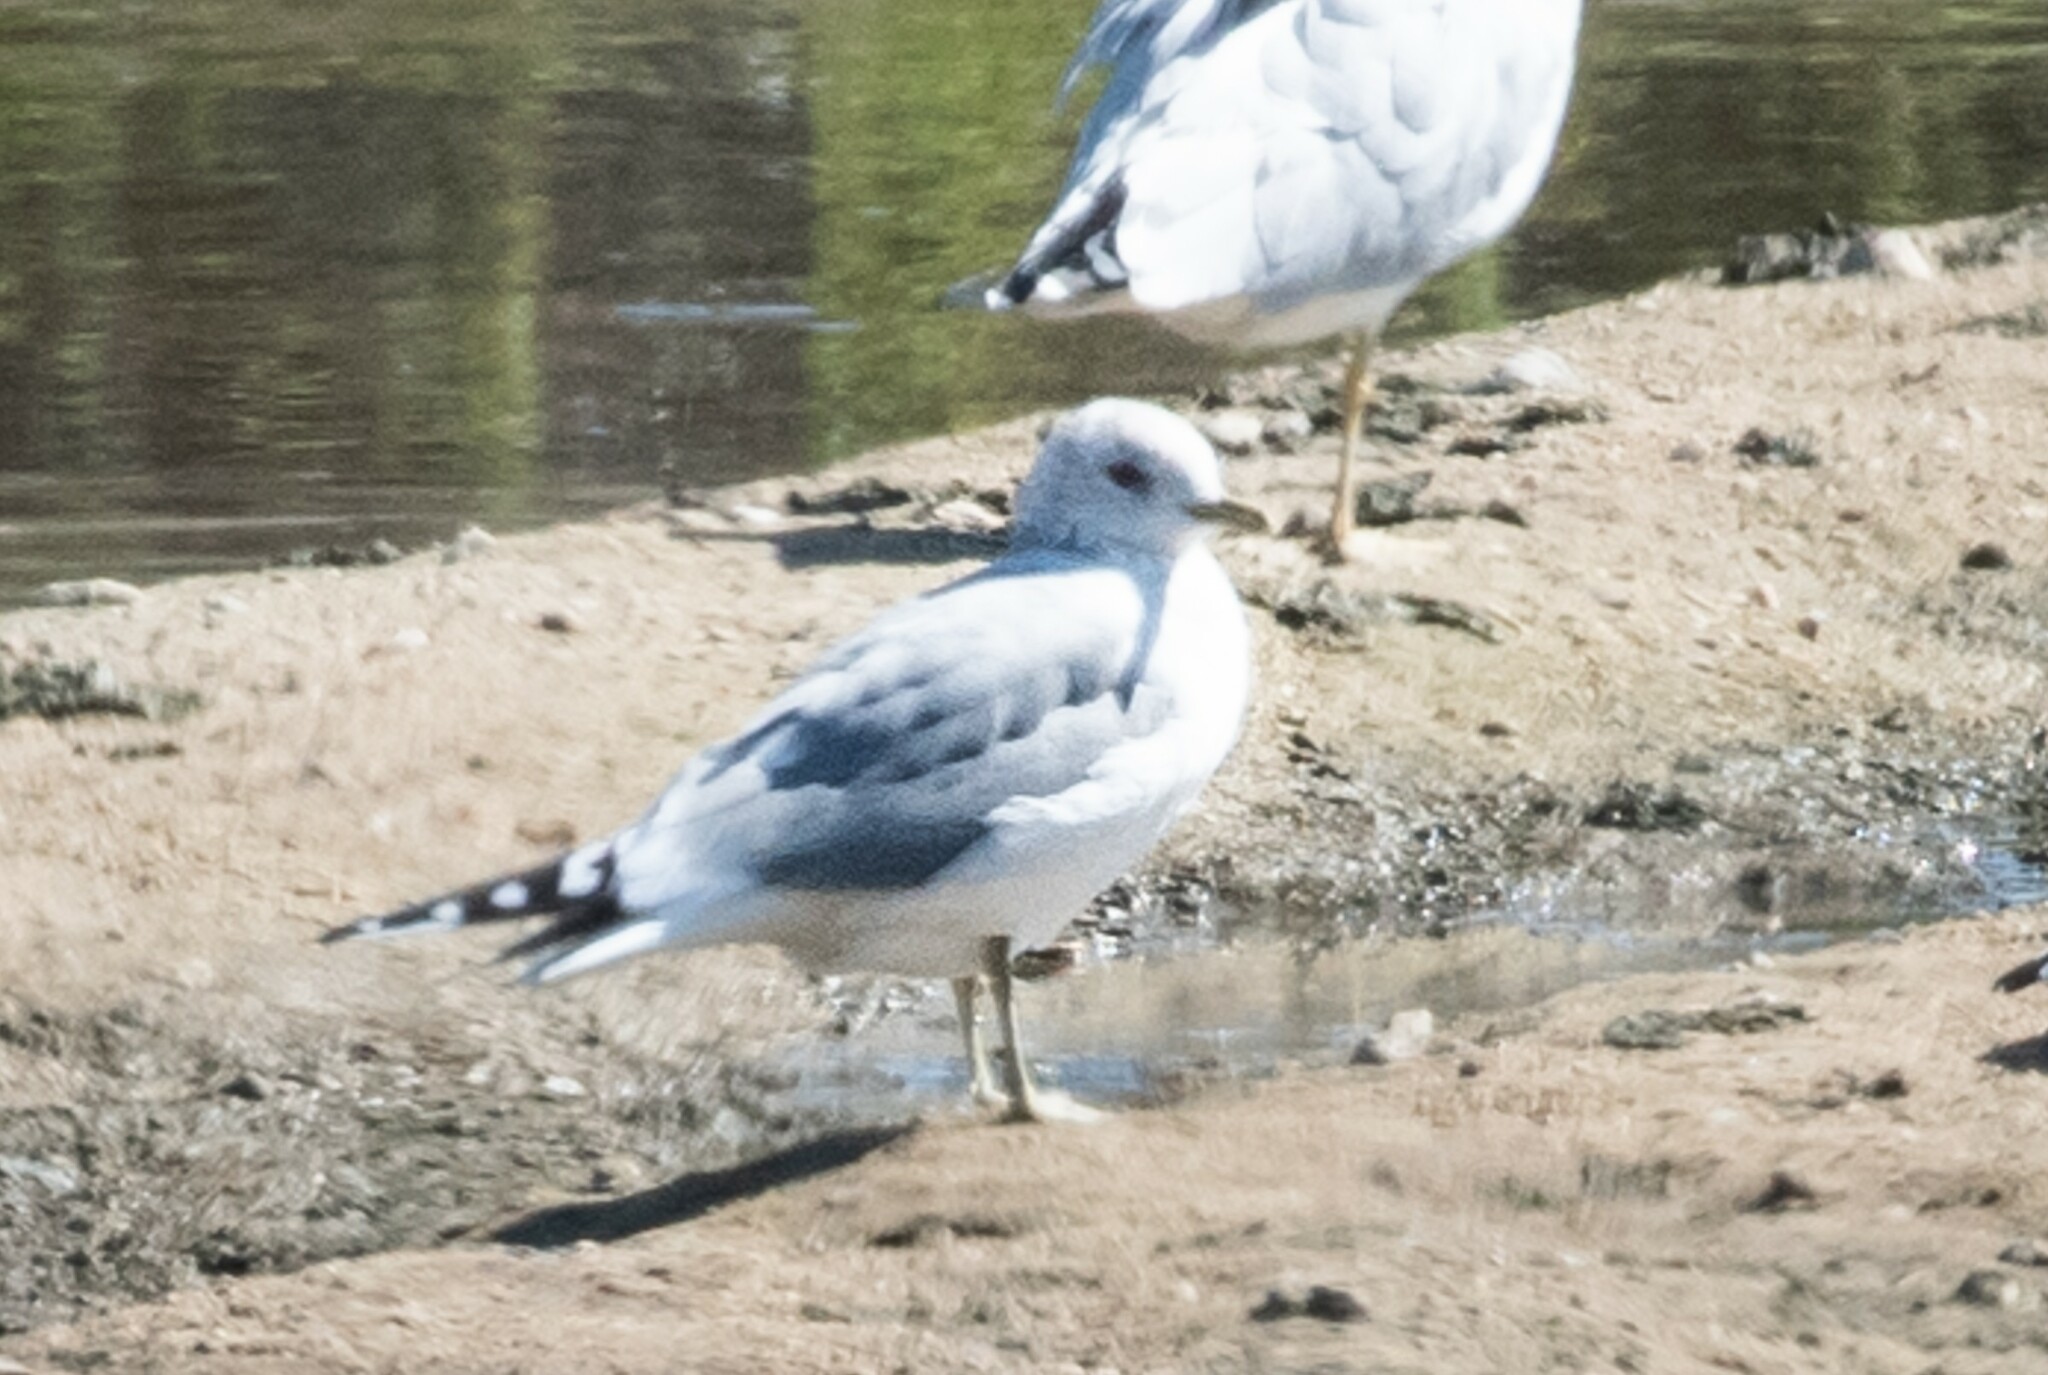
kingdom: Animalia
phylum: Chordata
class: Aves
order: Charadriiformes
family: Laridae
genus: Larus
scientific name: Larus brachyrhynchus
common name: Short-billed gull
